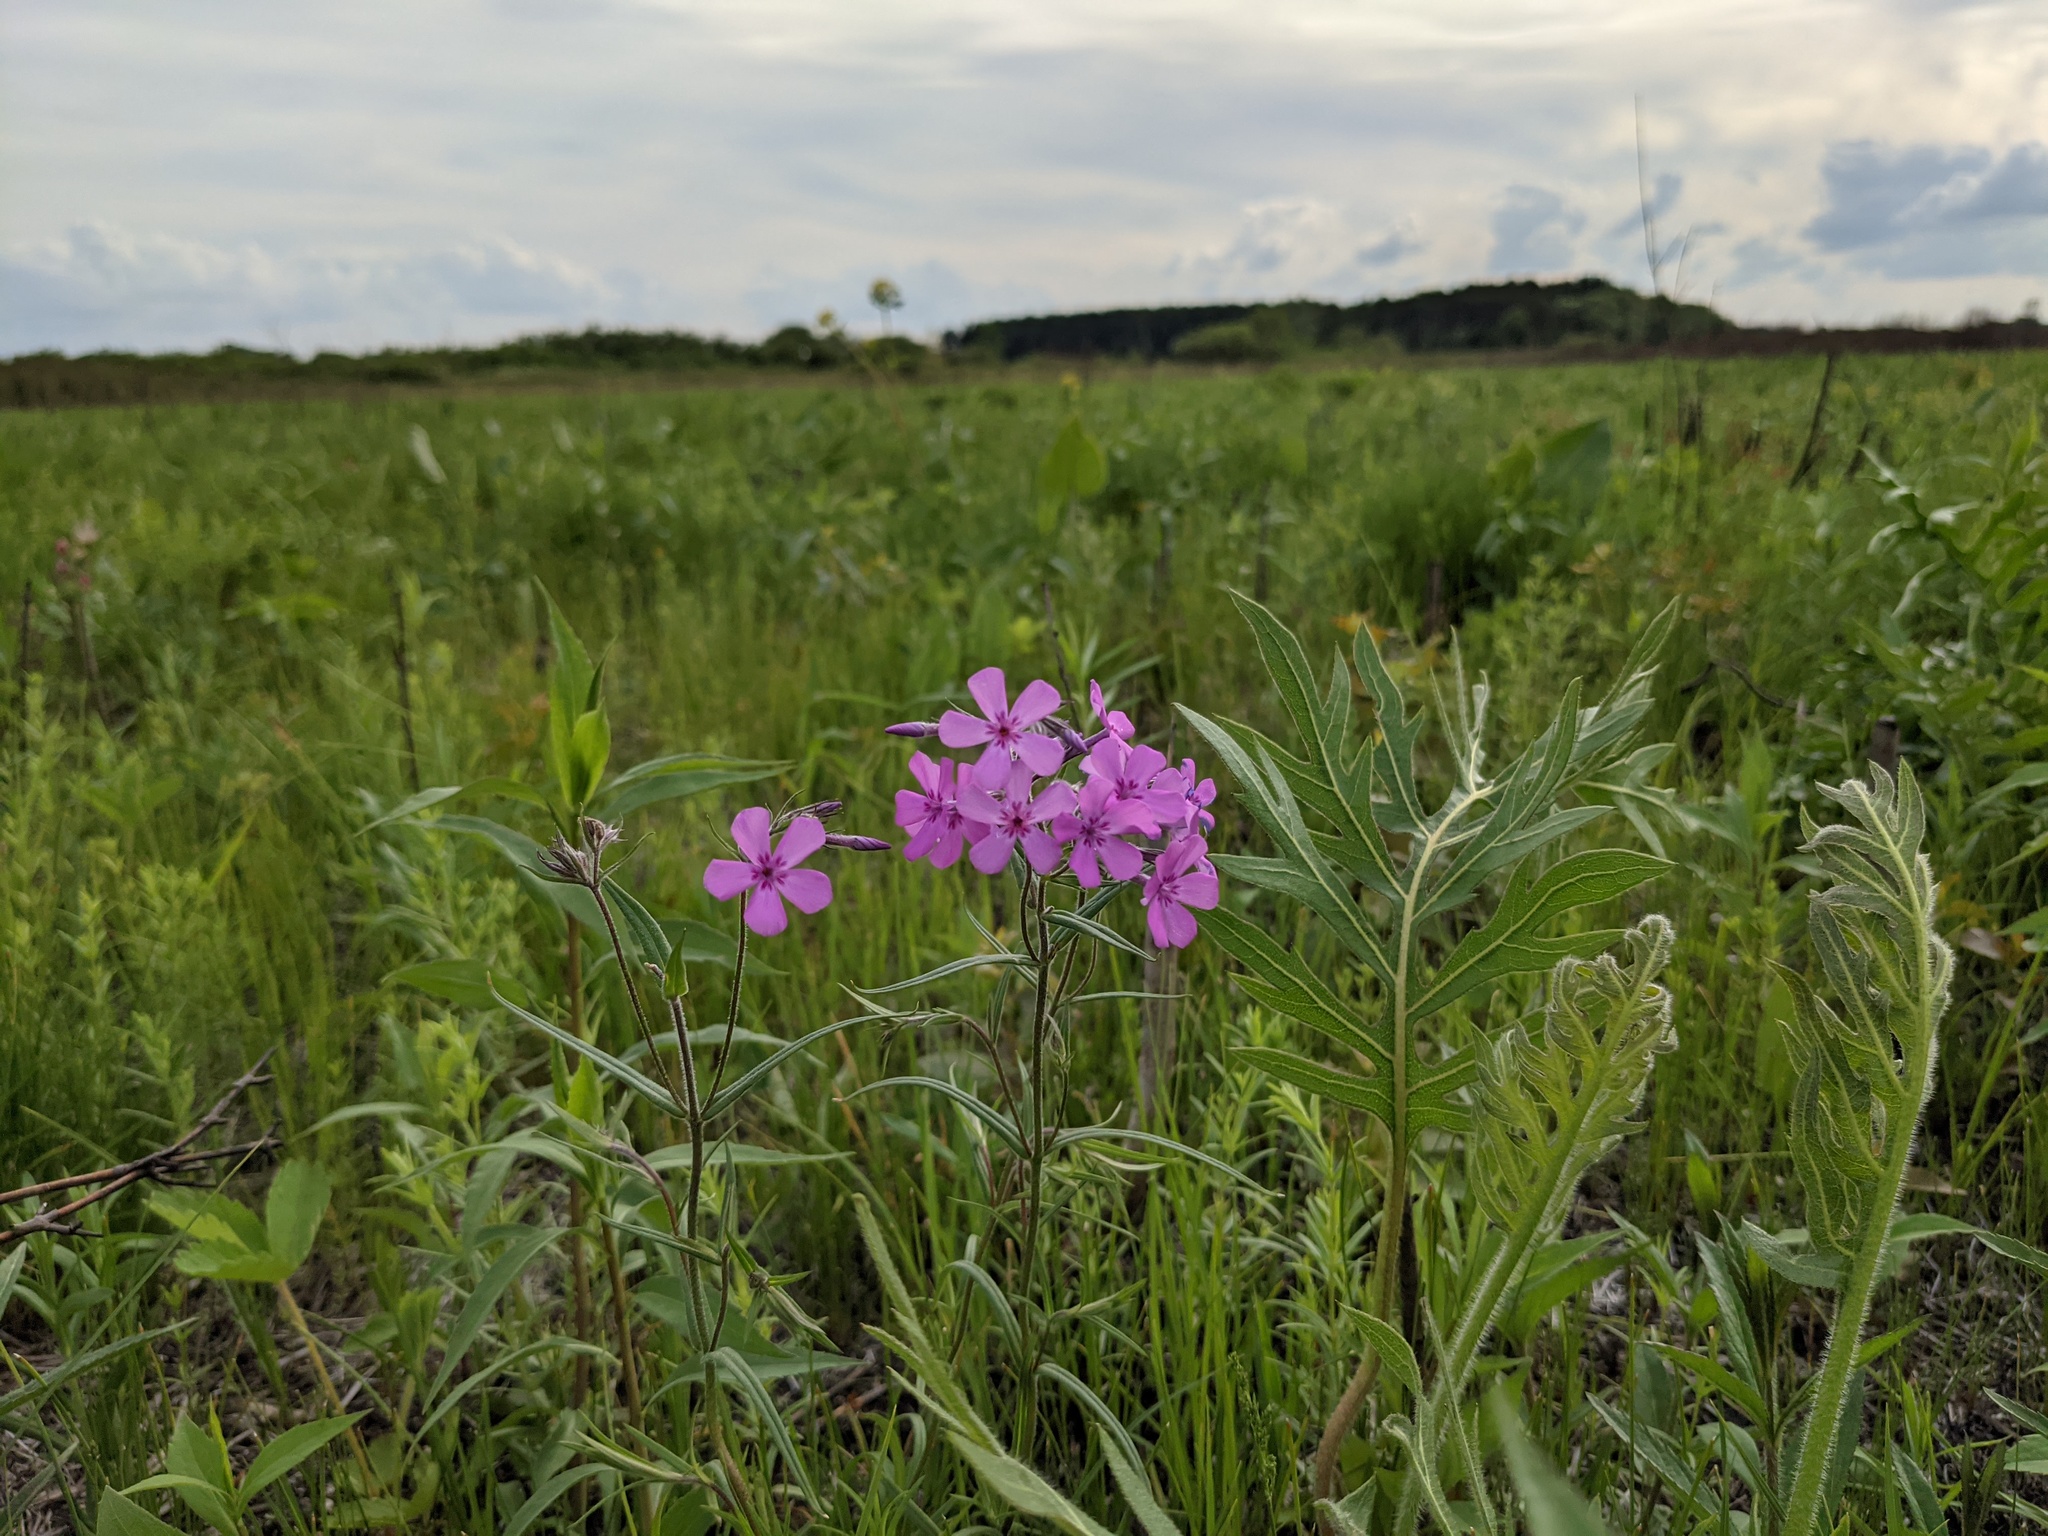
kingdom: Plantae
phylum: Tracheophyta
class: Magnoliopsida
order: Ericales
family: Polemoniaceae
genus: Phlox
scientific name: Phlox pilosa
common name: Prairie phlox
